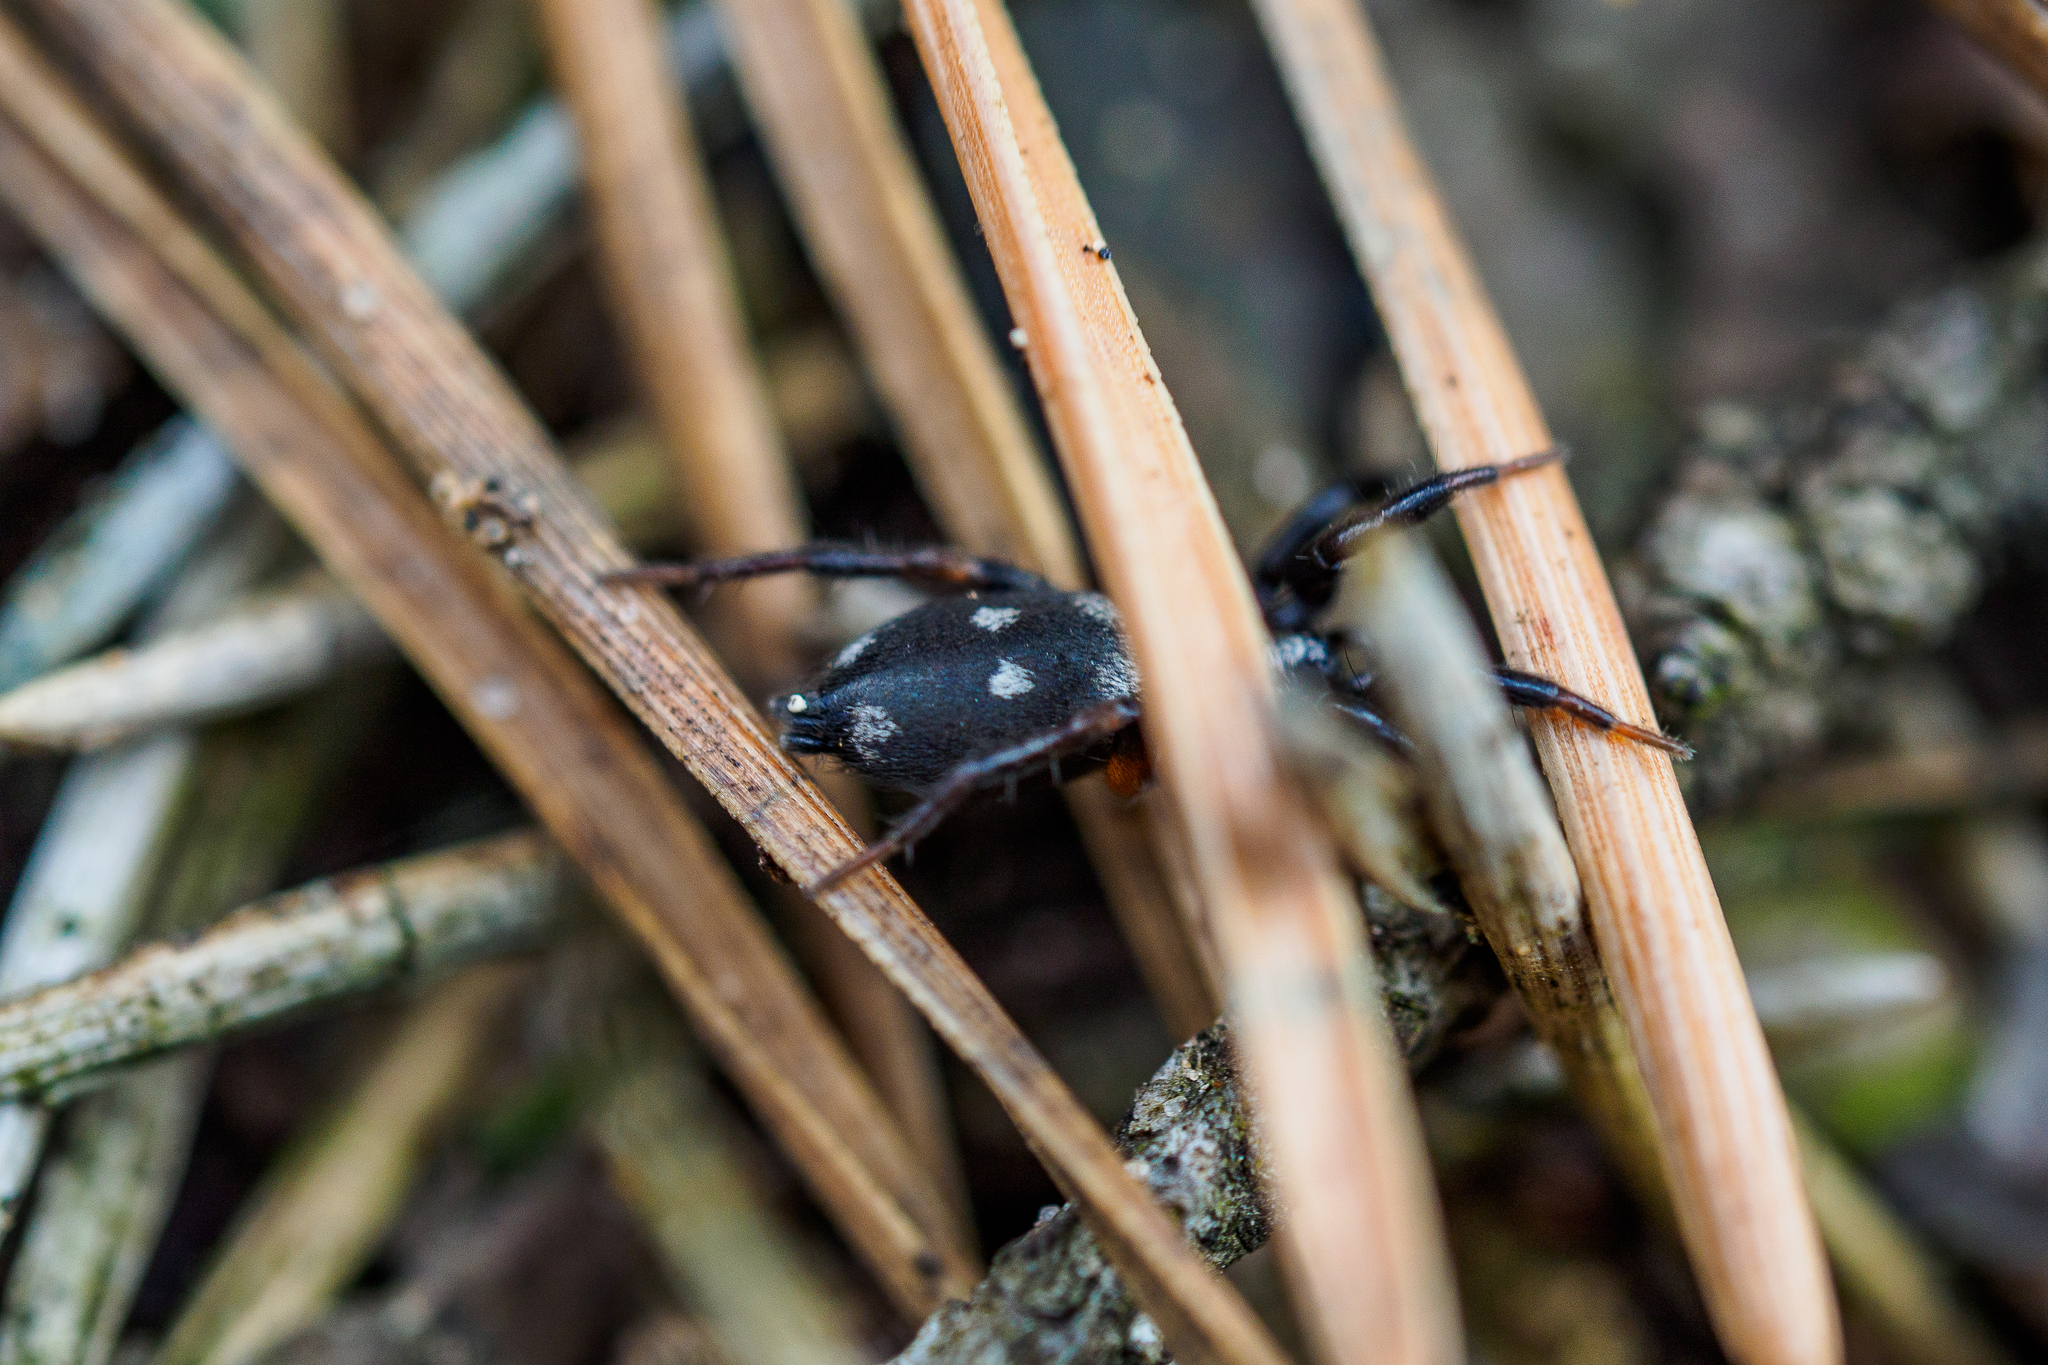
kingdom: Animalia
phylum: Arthropoda
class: Arachnida
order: Araneae
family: Gnaphosidae
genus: Callilepis
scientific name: Callilepis nocturna
